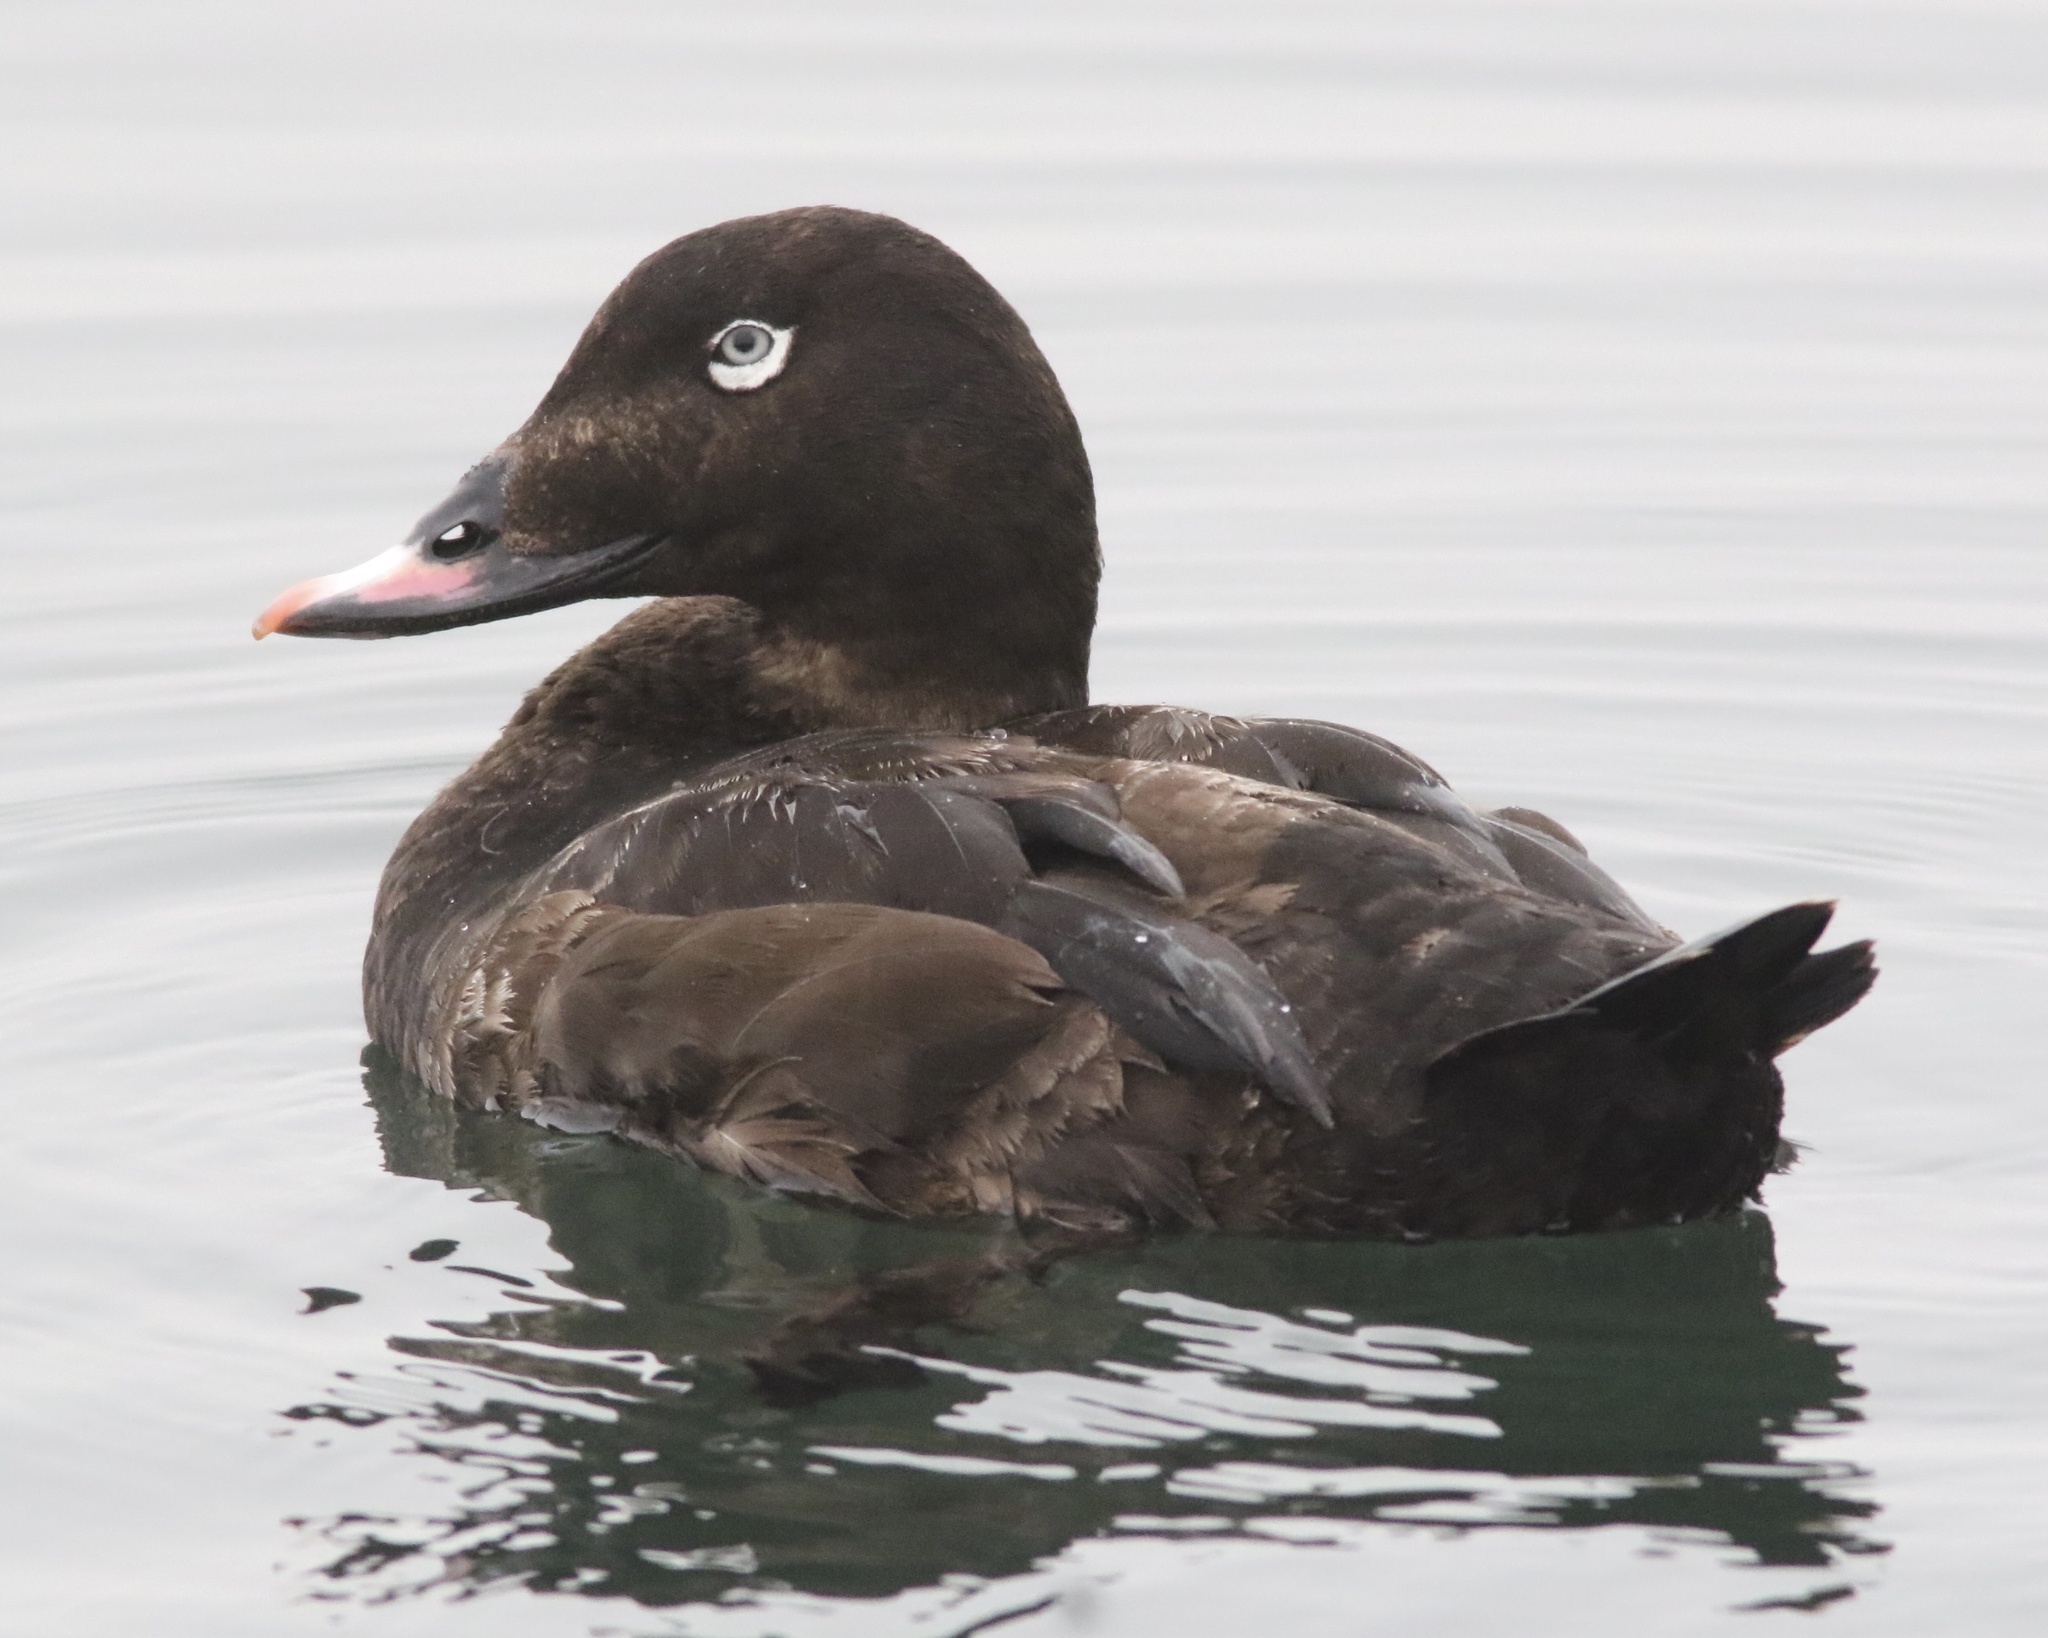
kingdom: Animalia
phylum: Chordata
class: Aves
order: Anseriformes
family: Anatidae
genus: Melanitta
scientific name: Melanitta deglandi
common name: White-winged scoter
